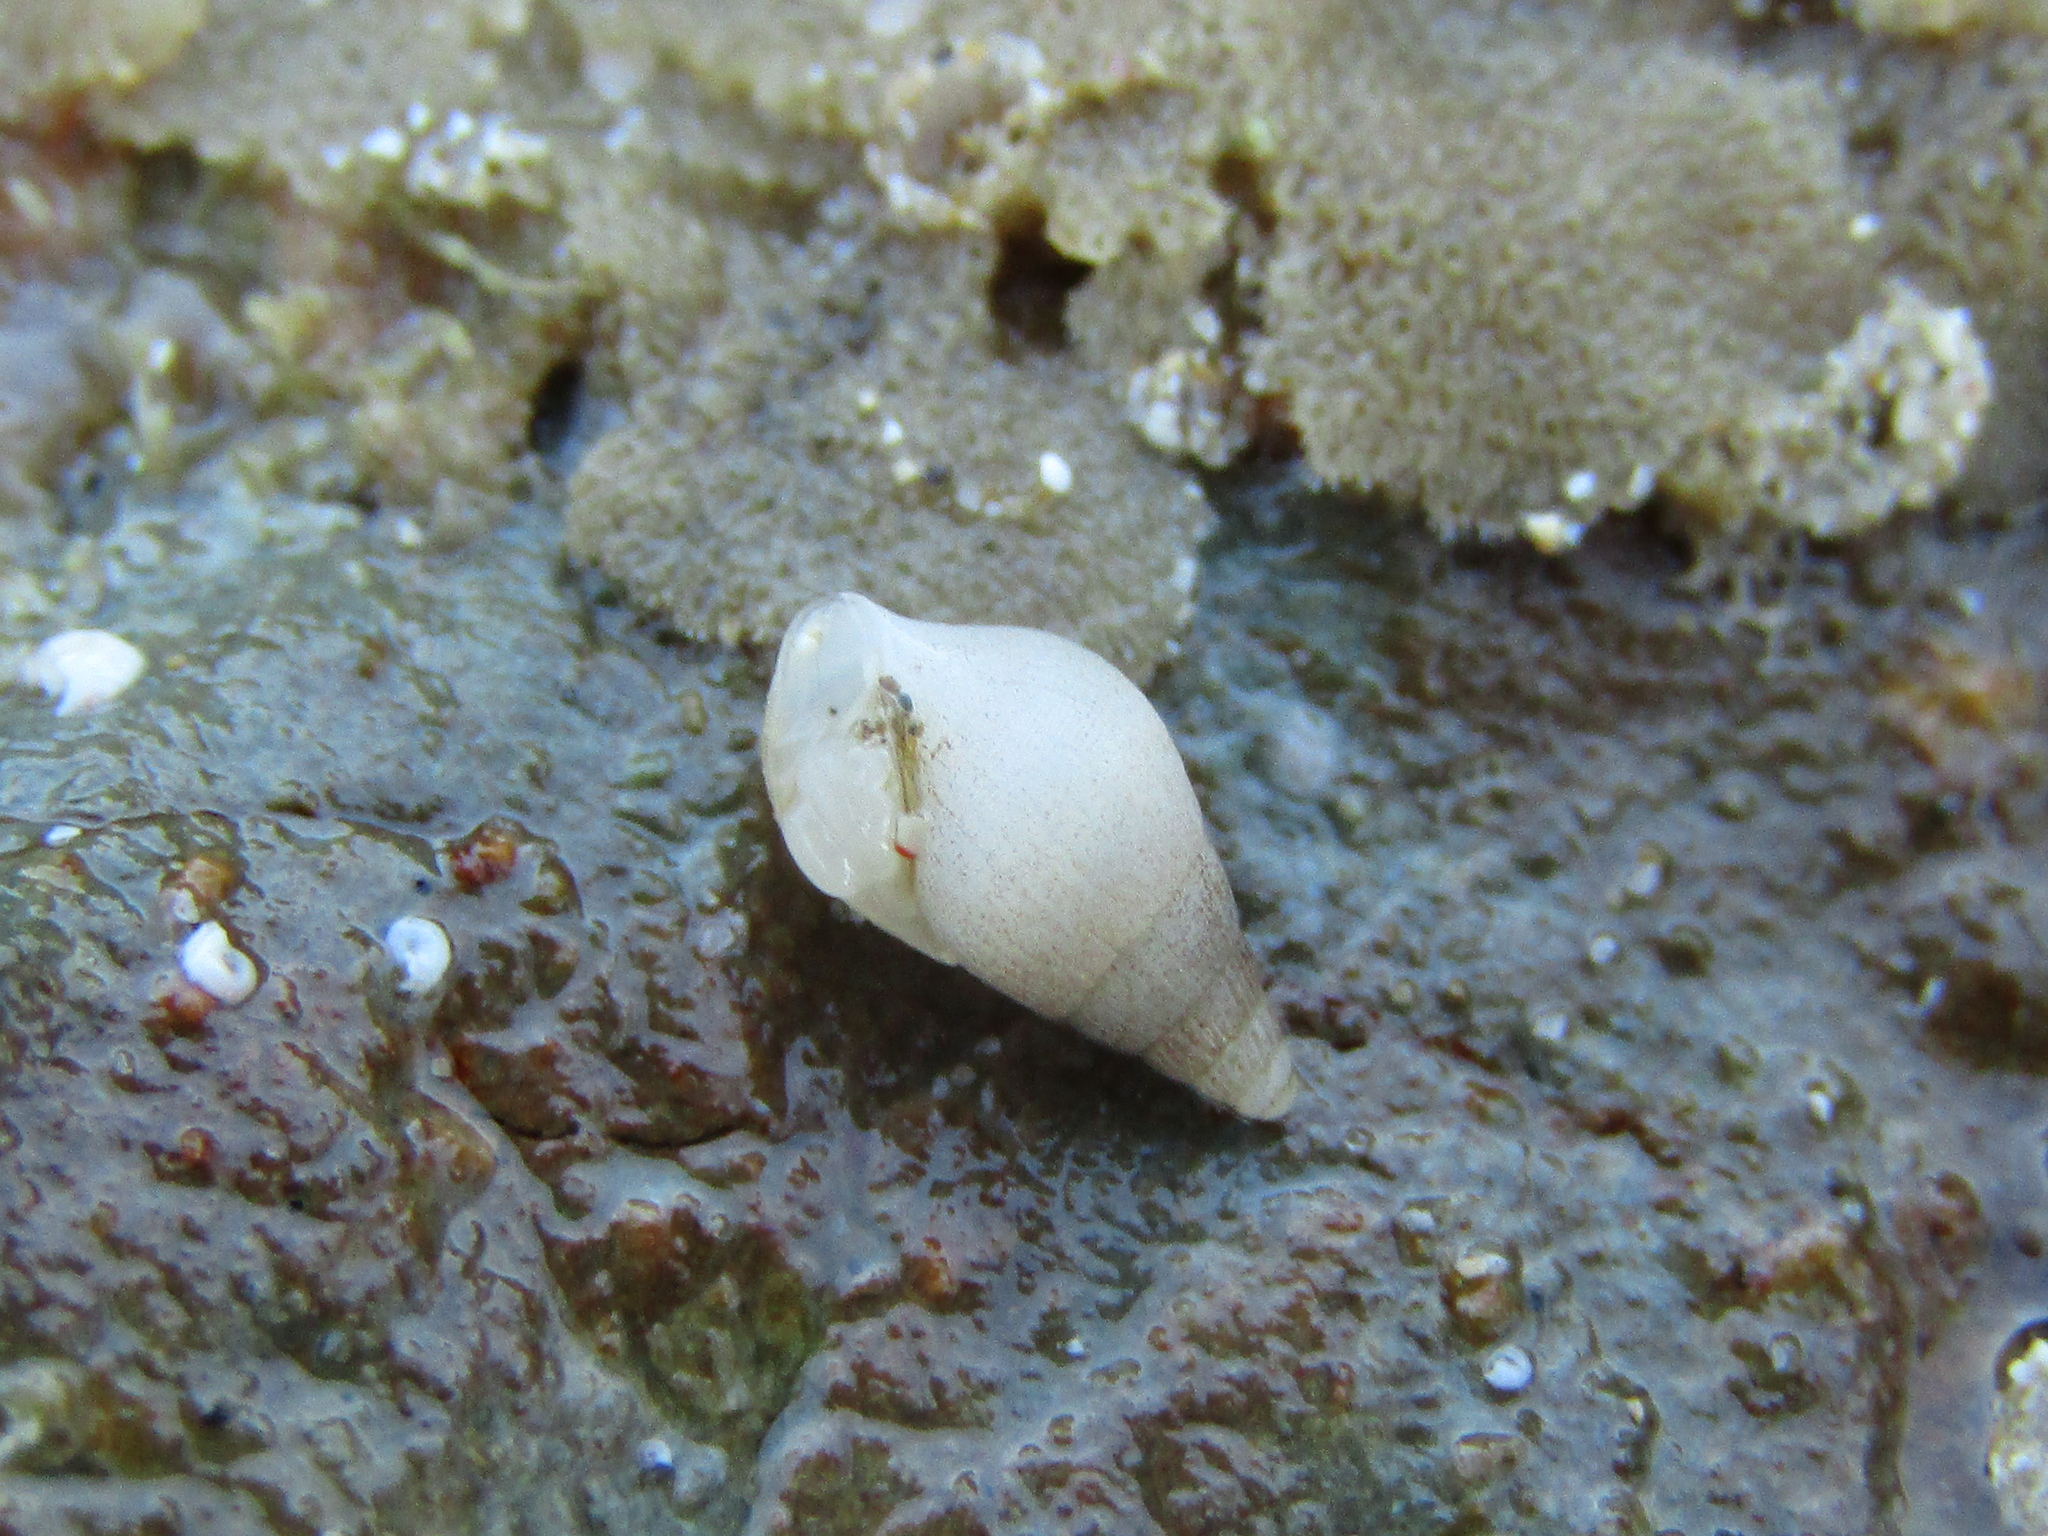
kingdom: Animalia
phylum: Mollusca
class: Gastropoda
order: Littorinimorpha
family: Rissoinidae
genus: Rissoina
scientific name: Rissoina zonata
